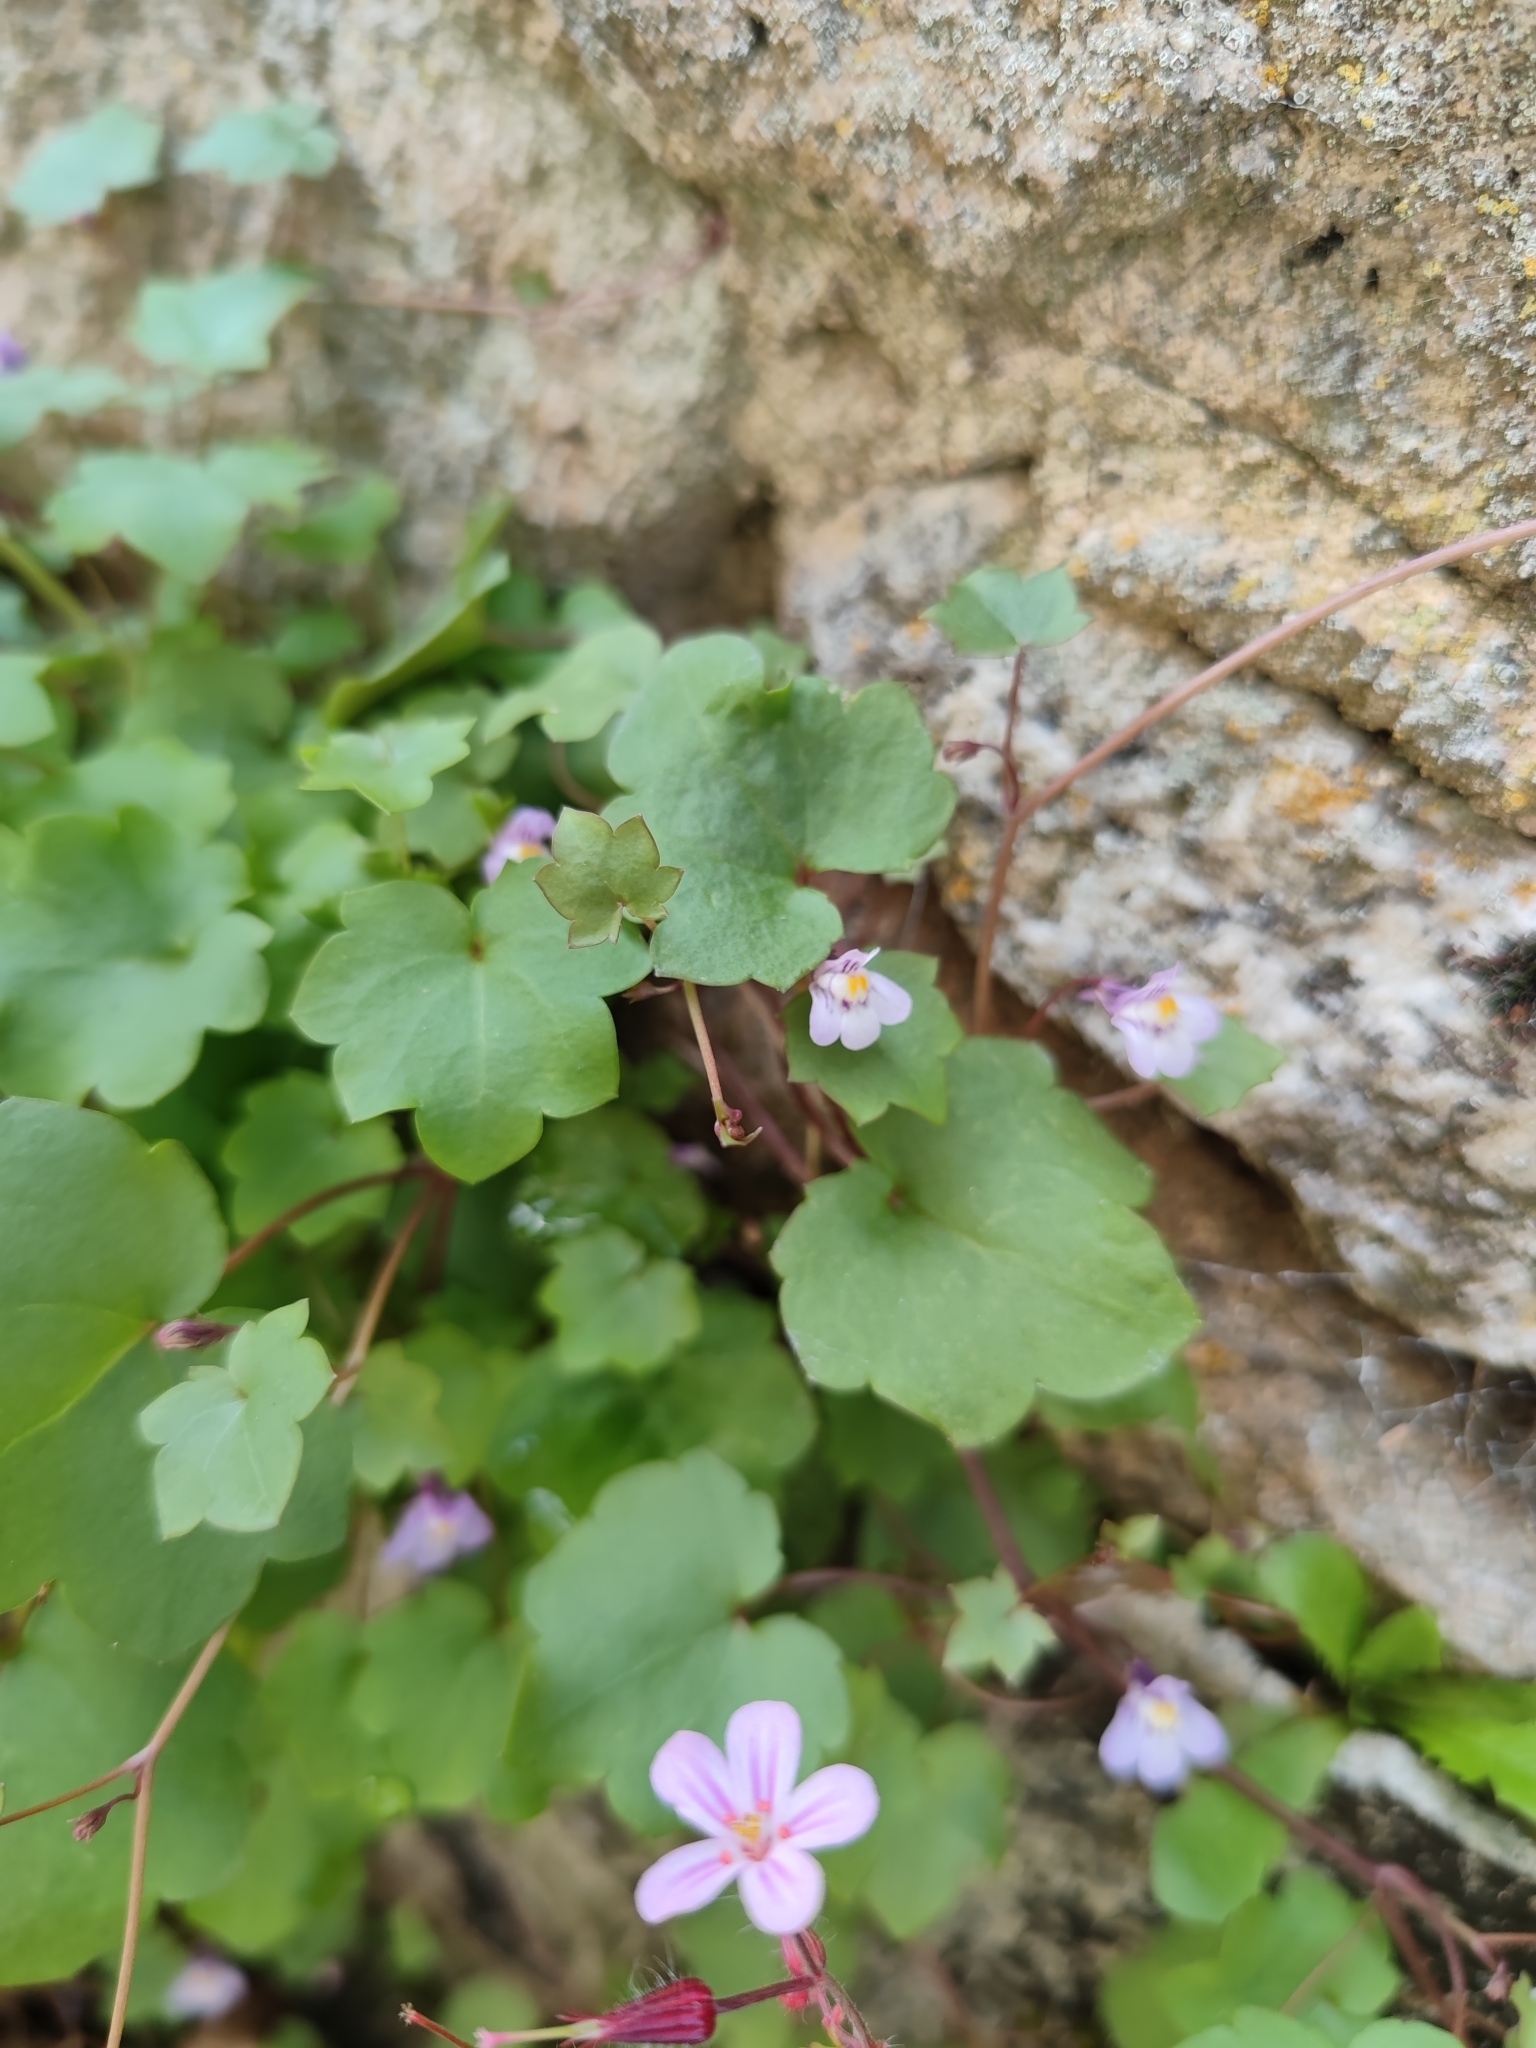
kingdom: Plantae
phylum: Tracheophyta
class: Magnoliopsida
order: Lamiales
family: Plantaginaceae
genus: Cymbalaria
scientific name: Cymbalaria muralis
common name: Ivy-leaved toadflax
